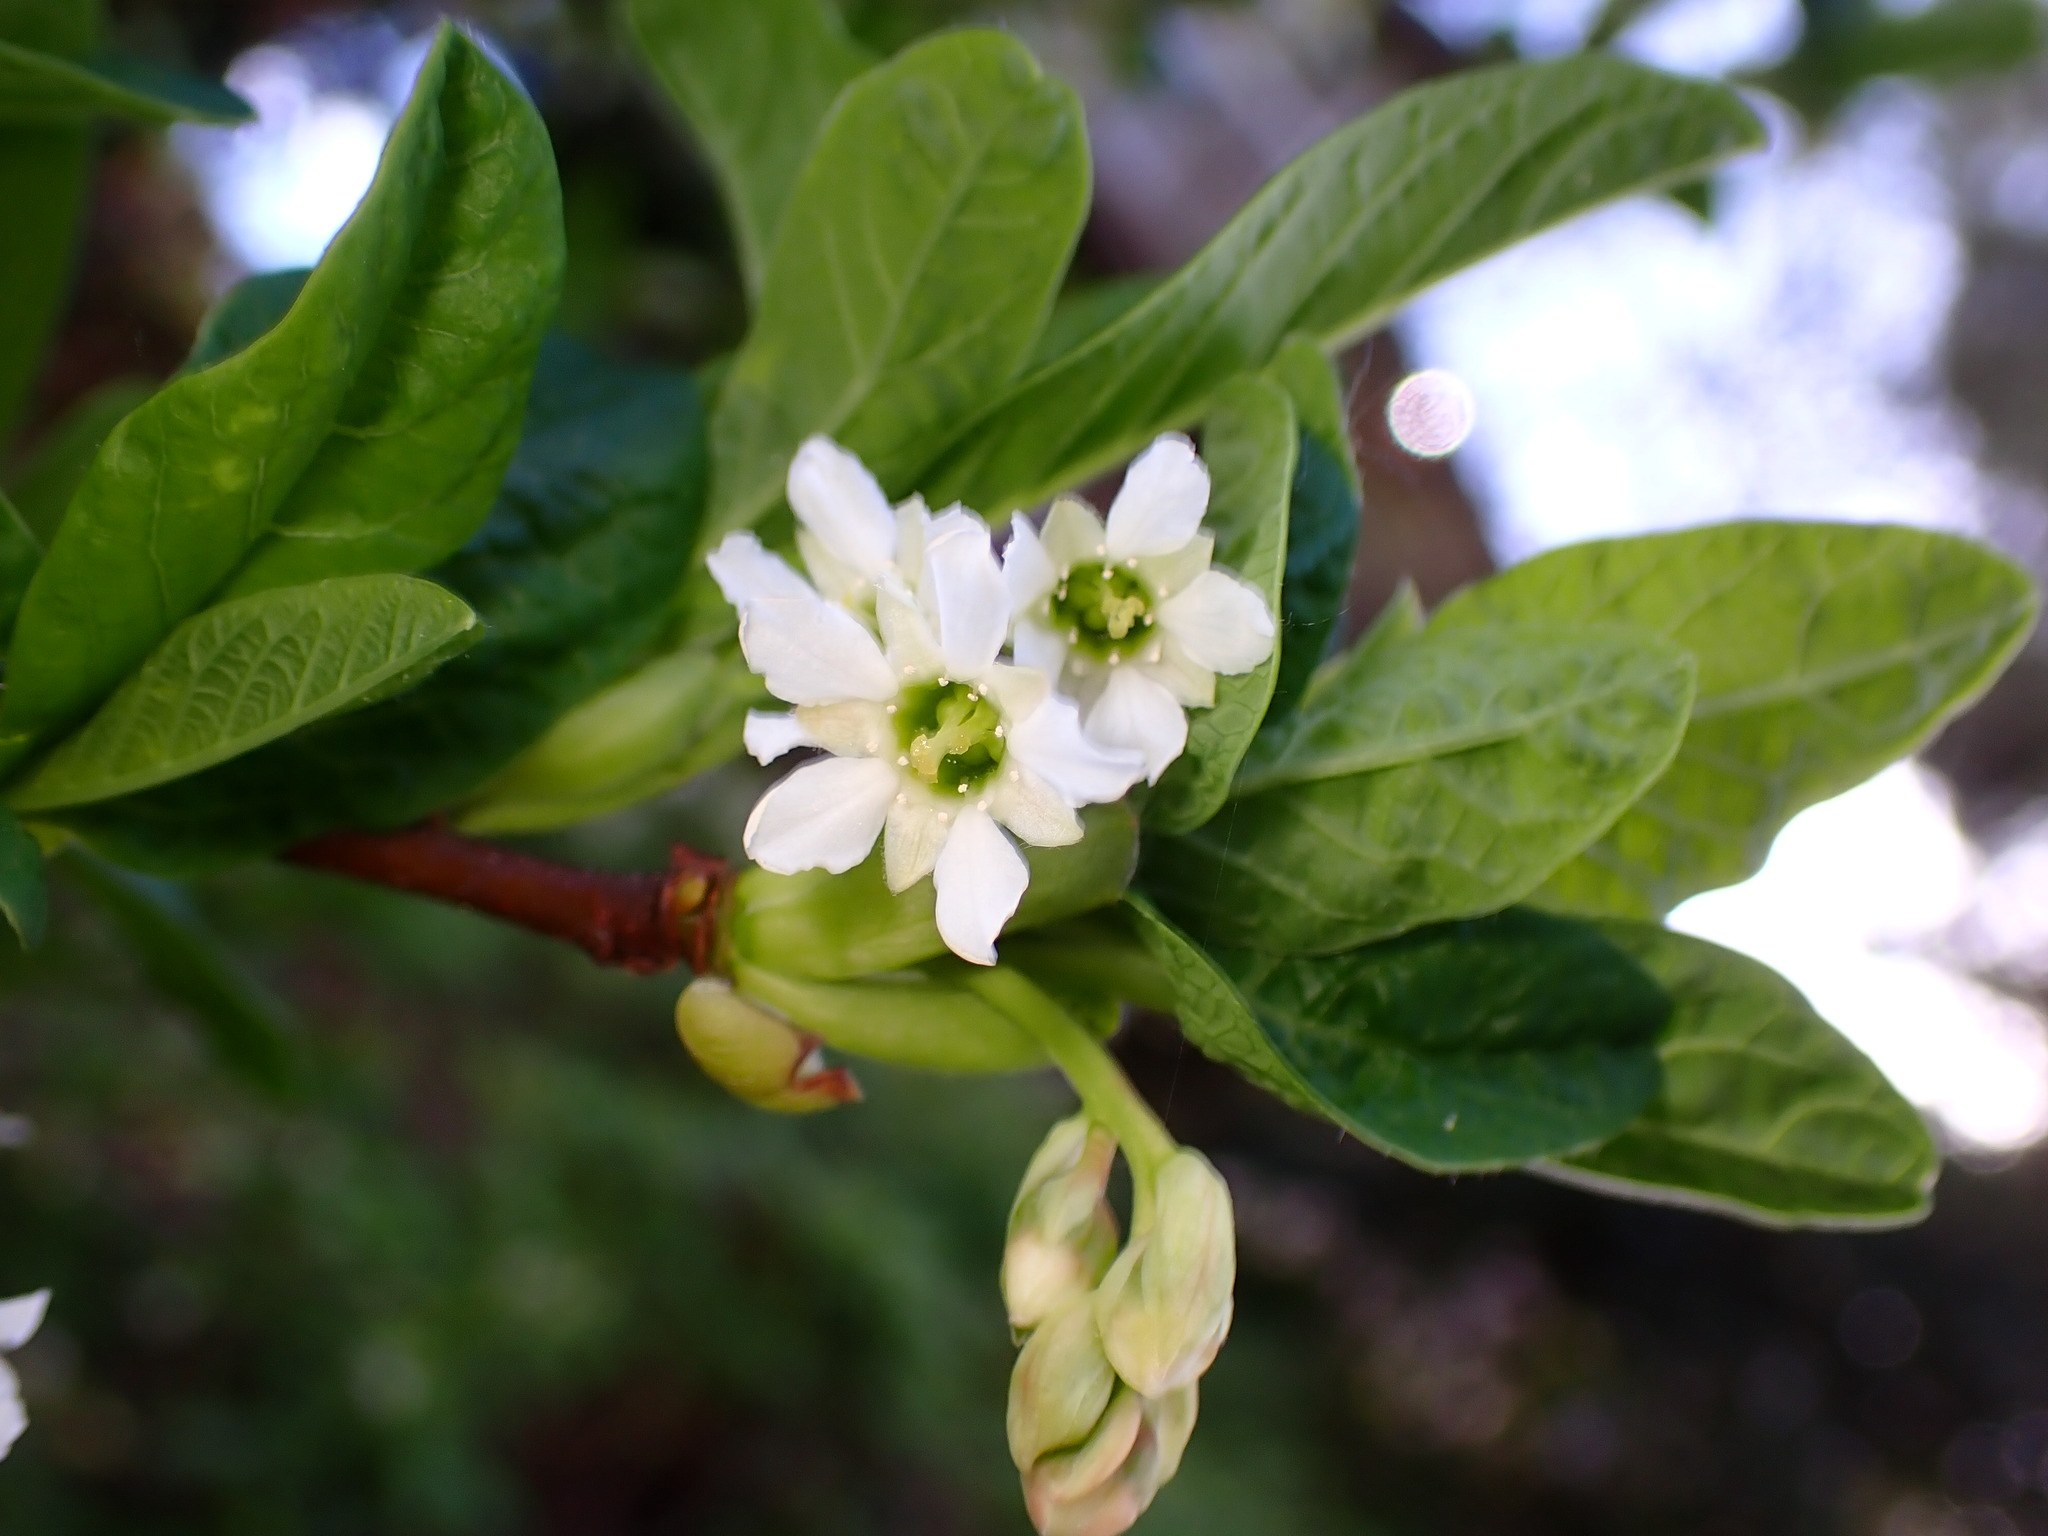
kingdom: Plantae
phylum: Tracheophyta
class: Magnoliopsida
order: Rosales
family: Rosaceae
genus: Oemleria
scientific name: Oemleria cerasiformis
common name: Osoberry
